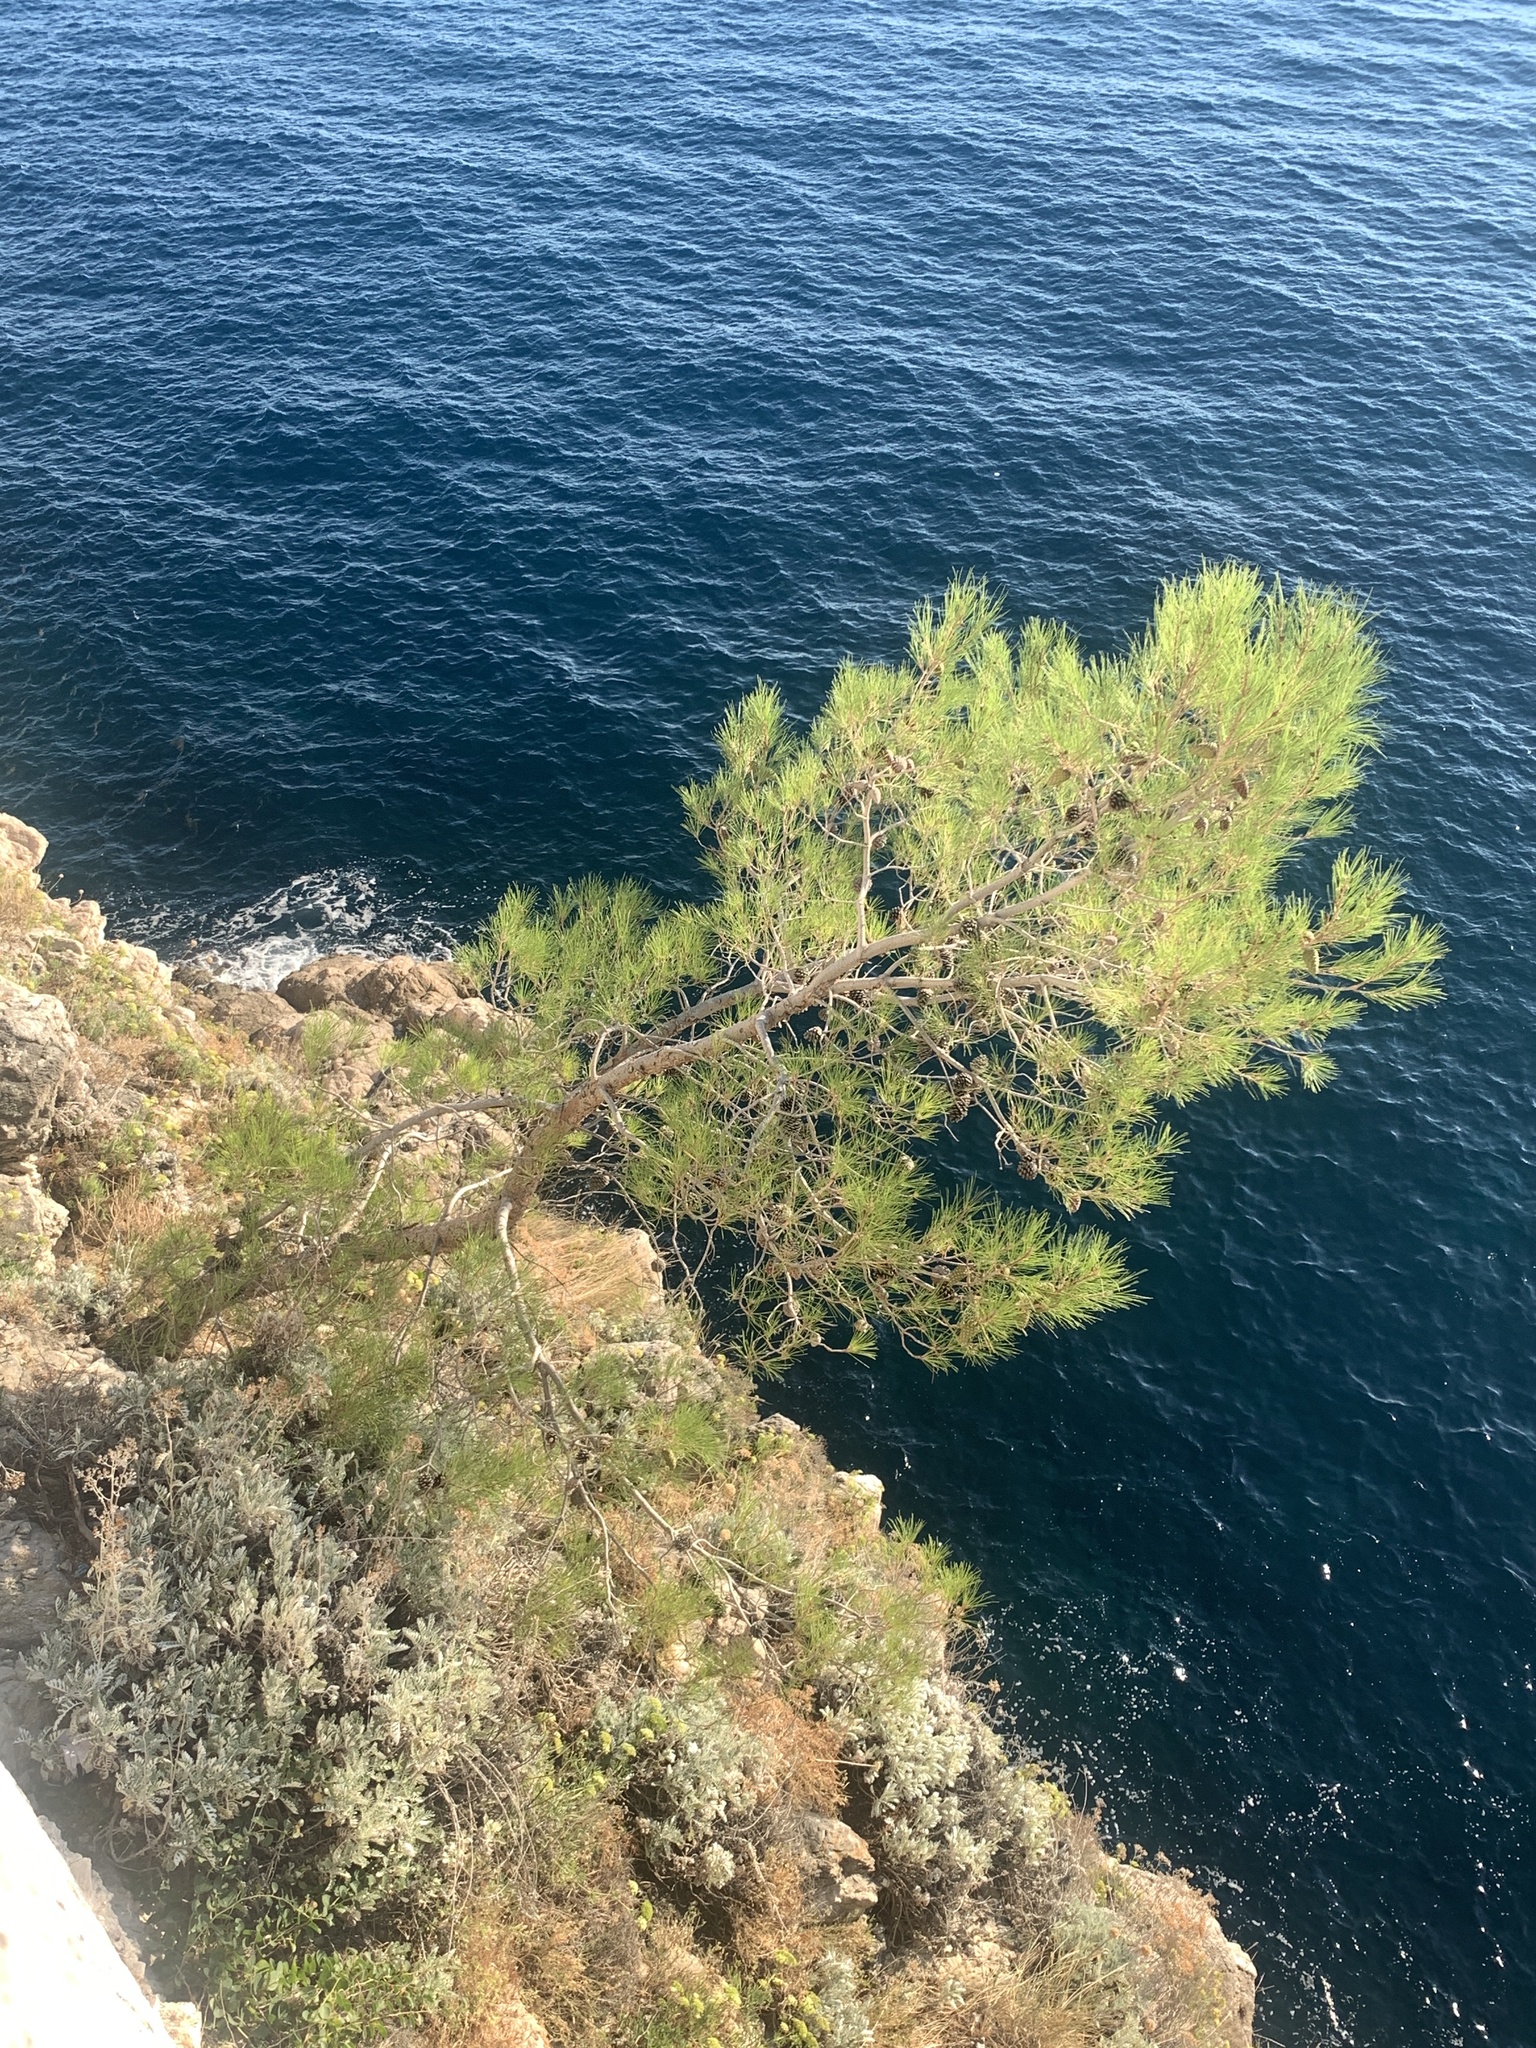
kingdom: Plantae
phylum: Tracheophyta
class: Pinopsida
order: Pinales
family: Pinaceae
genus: Pinus
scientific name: Pinus halepensis
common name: Aleppo pine
